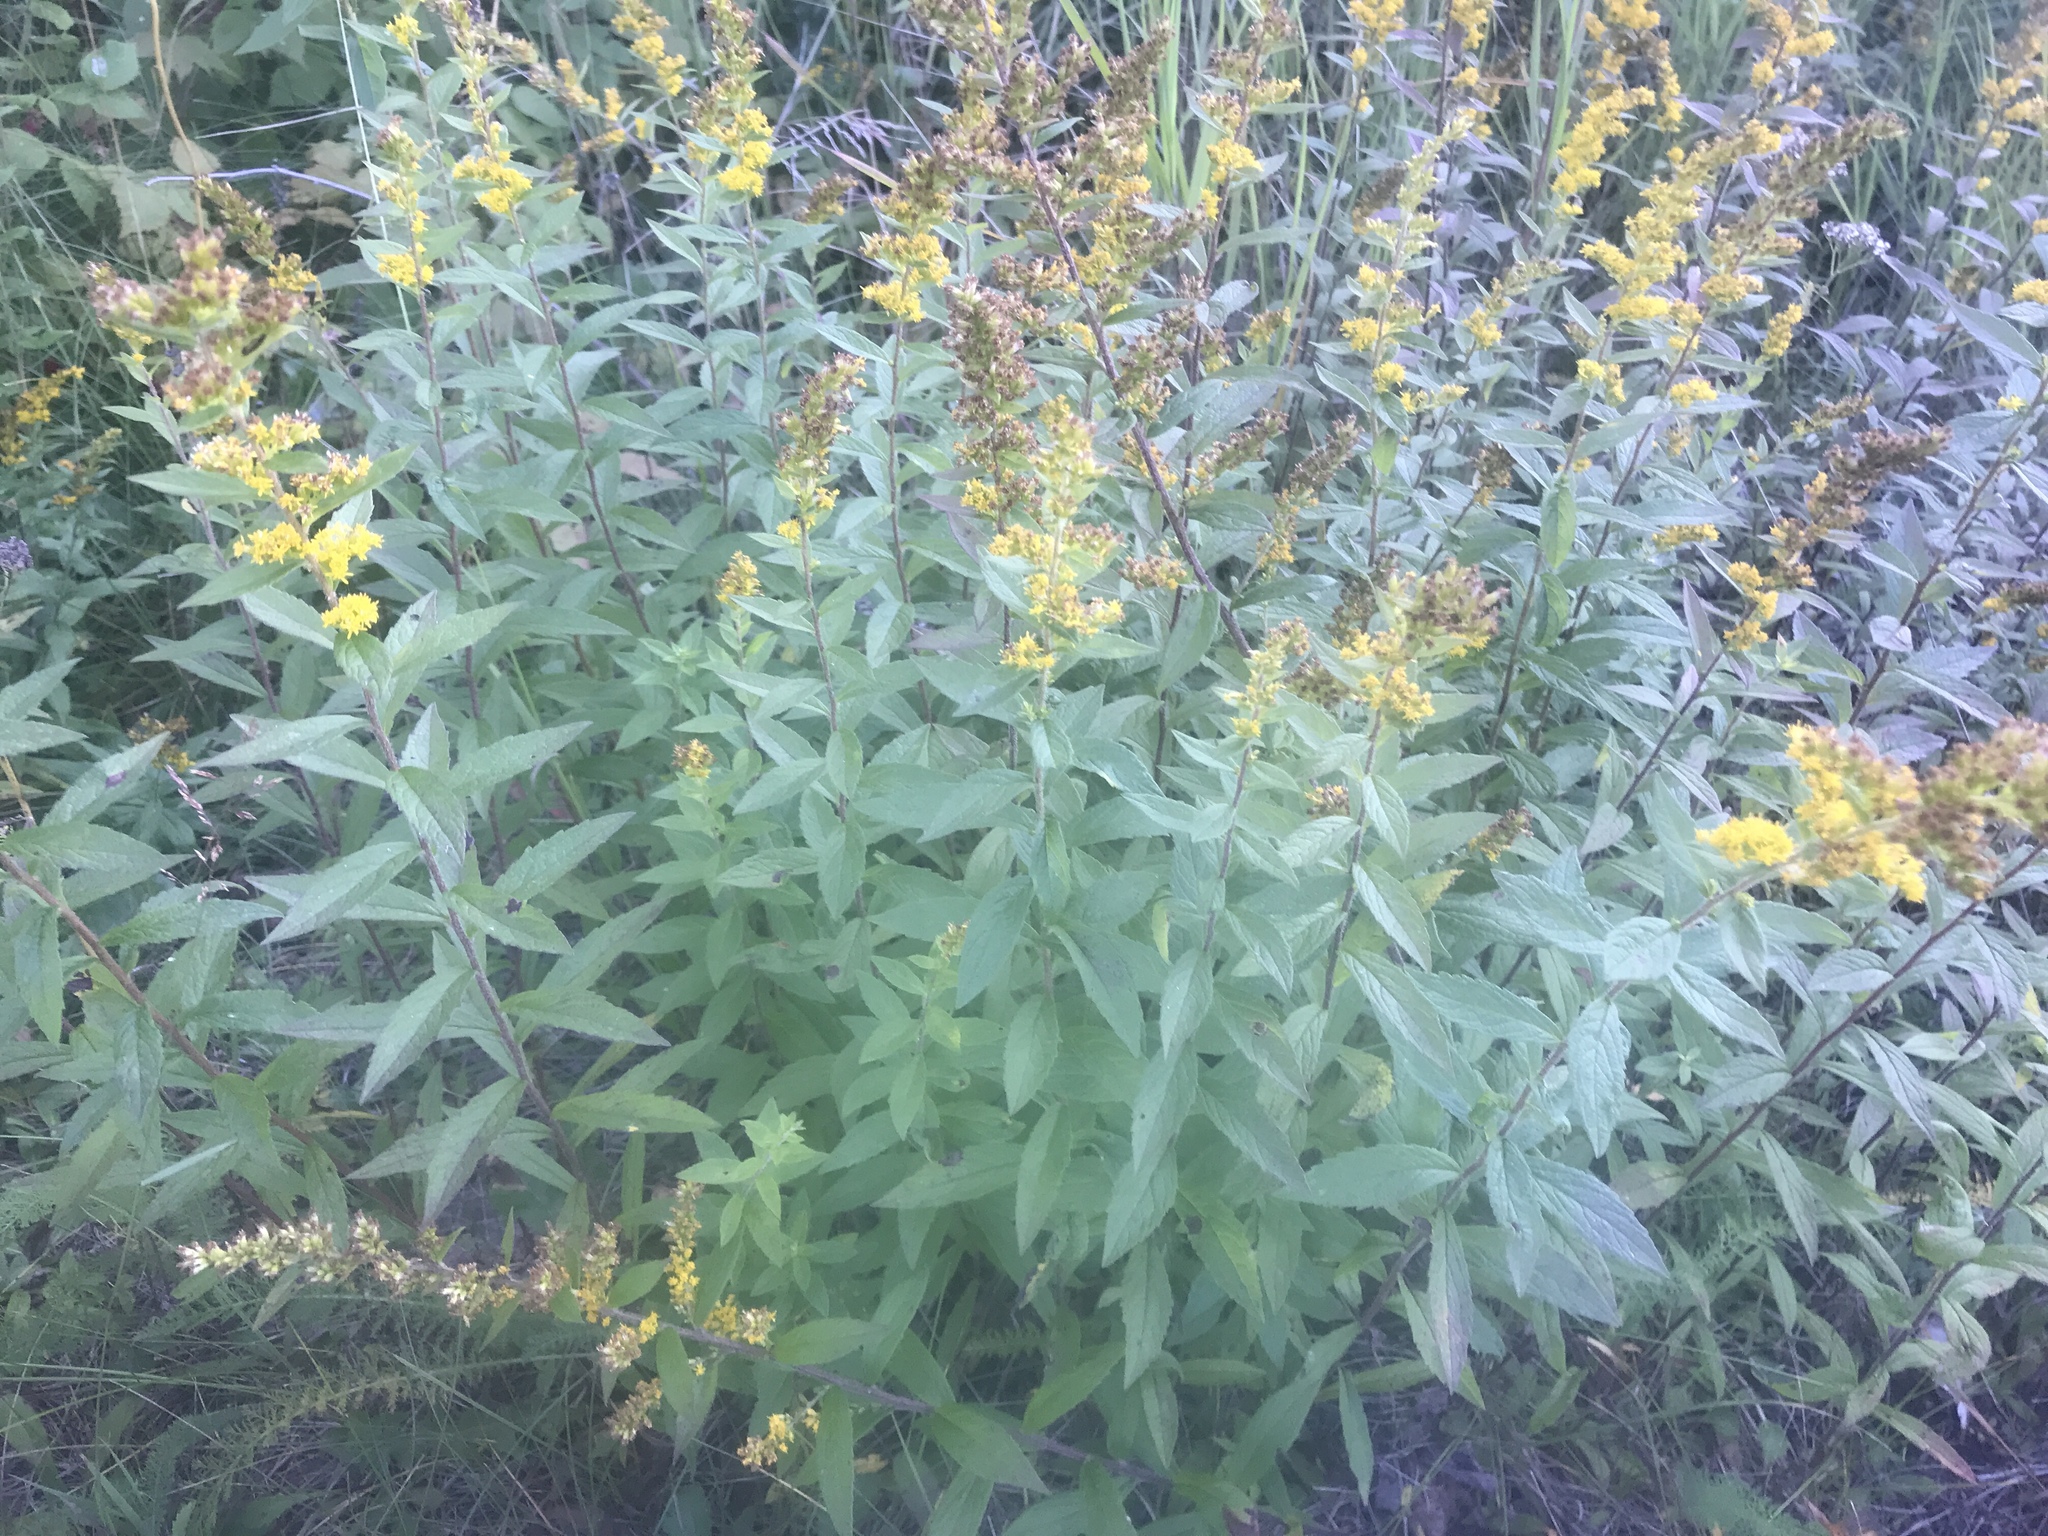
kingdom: Plantae
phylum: Tracheophyta
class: Magnoliopsida
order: Asterales
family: Asteraceae
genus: Solidago
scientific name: Solidago rugosa
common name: Rough-stemmed goldenrod
